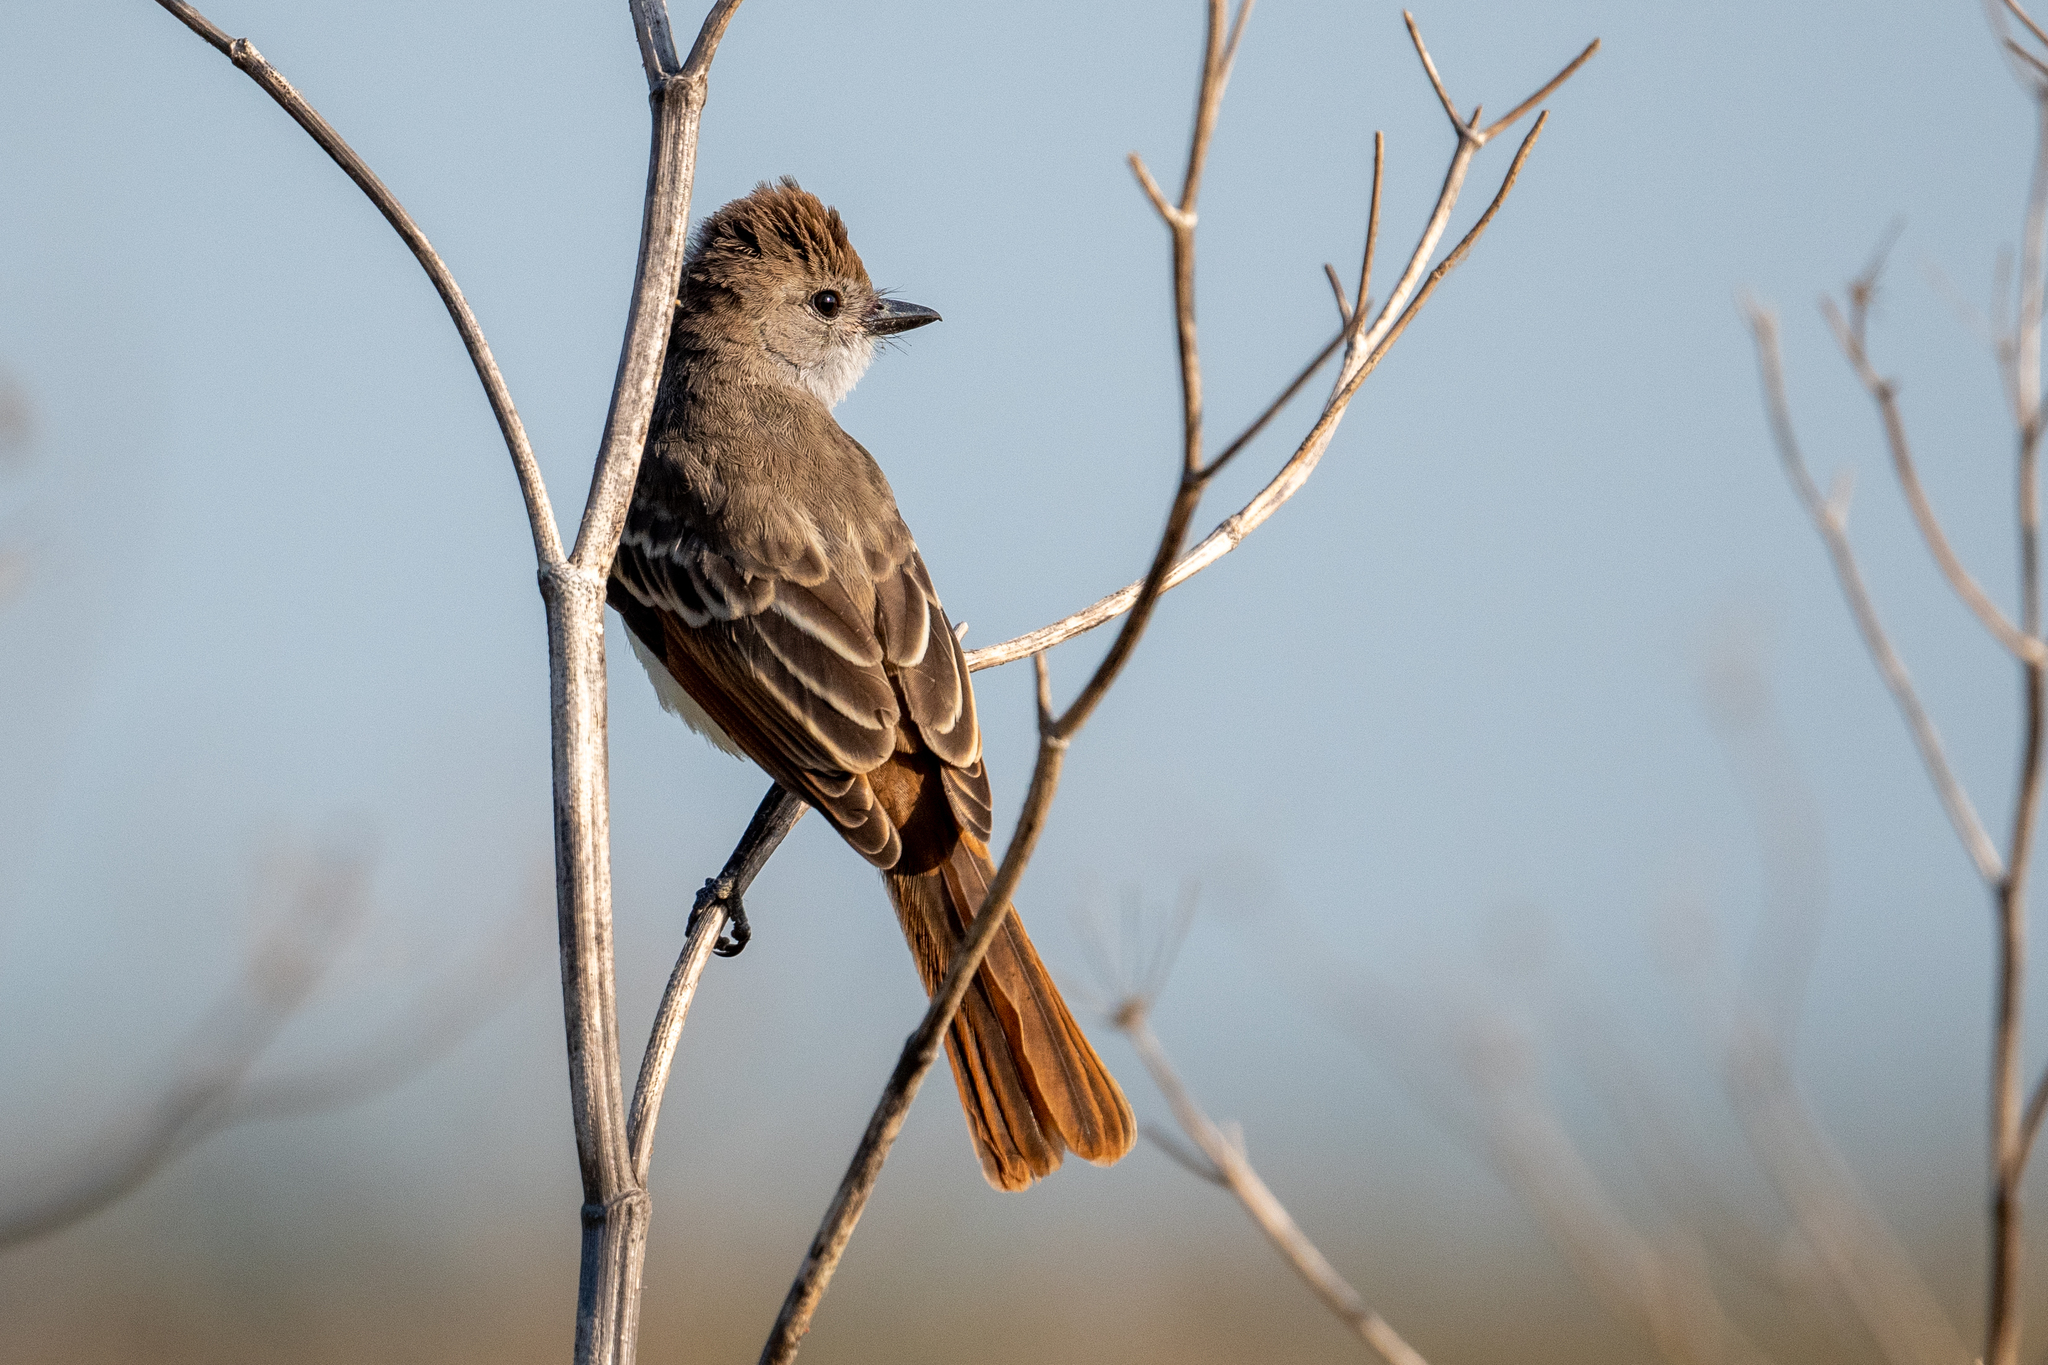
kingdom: Animalia
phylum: Chordata
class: Aves
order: Passeriformes
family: Tyrannidae
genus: Myiarchus
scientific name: Myiarchus cinerascens
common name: Ash-throated flycatcher
